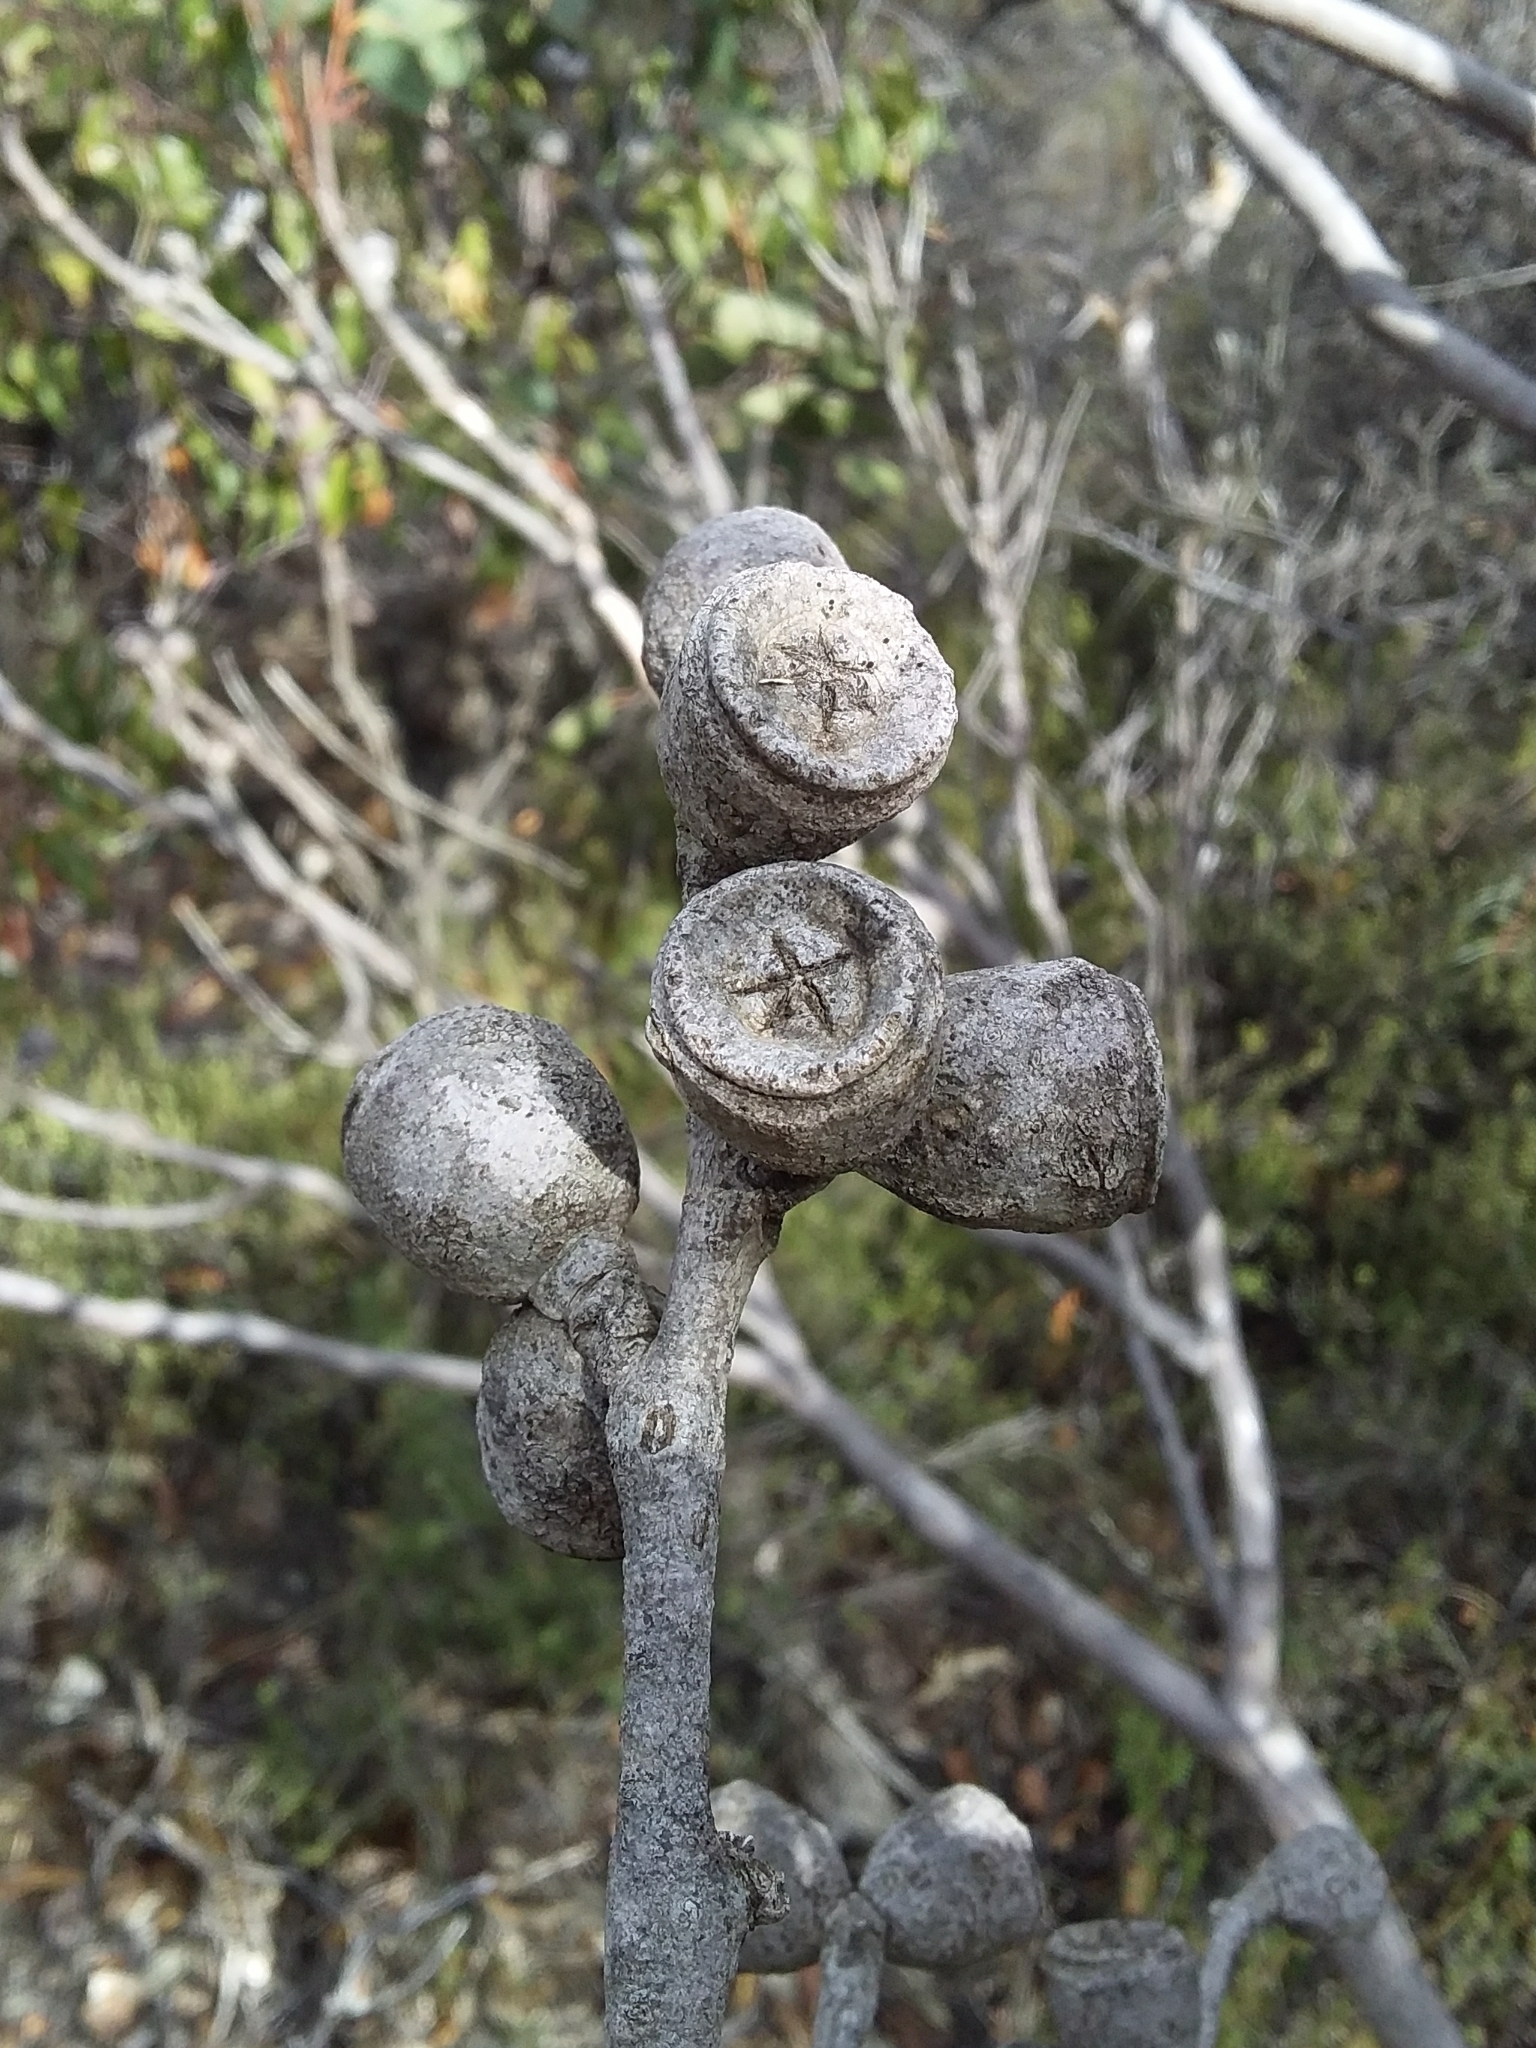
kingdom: Plantae
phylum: Tracheophyta
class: Magnoliopsida
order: Myrtales
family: Myrtaceae
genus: Eucalyptus
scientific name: Eucalyptus cosmophylla
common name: Bog-gum
